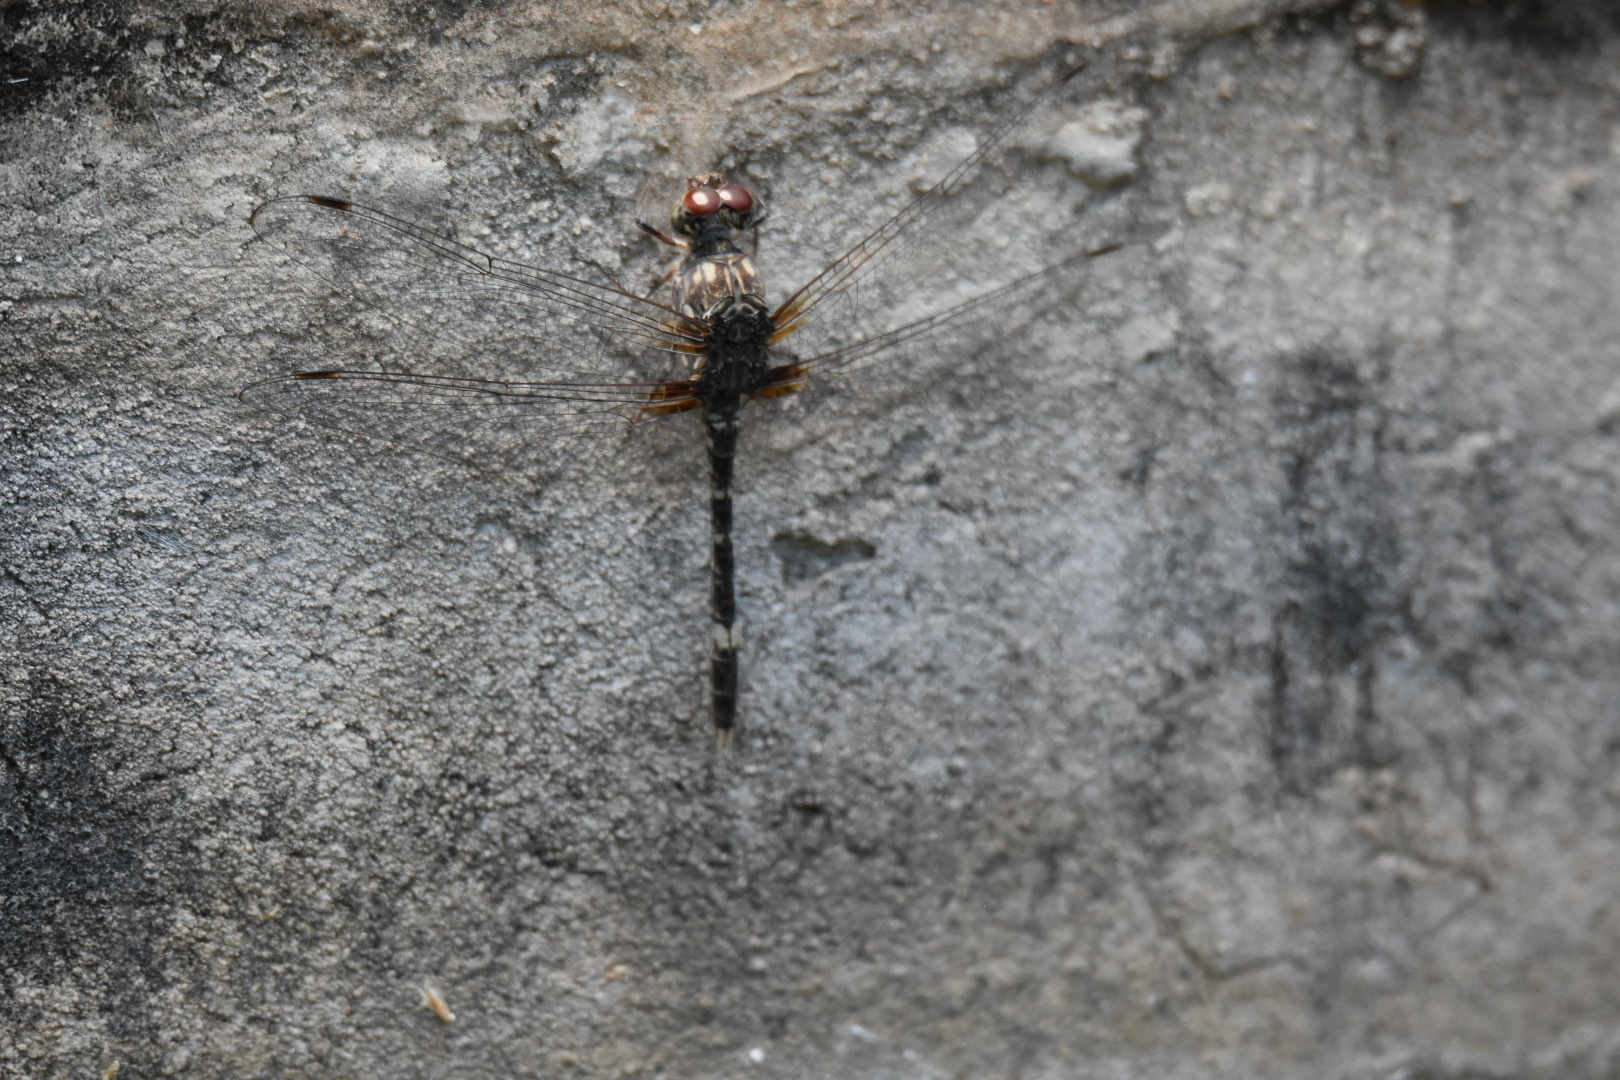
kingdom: Animalia
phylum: Arthropoda
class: Insecta
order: Odonata
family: Libellulidae
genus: Bradinopyga
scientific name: Bradinopyga cornuta
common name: Flecked wall-skimmer
